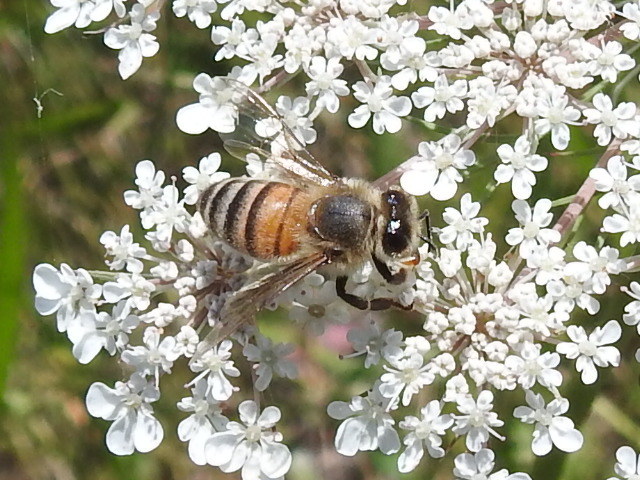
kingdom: Animalia
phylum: Arthropoda
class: Insecta
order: Hymenoptera
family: Apidae
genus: Apis
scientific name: Apis mellifera
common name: Honey bee
